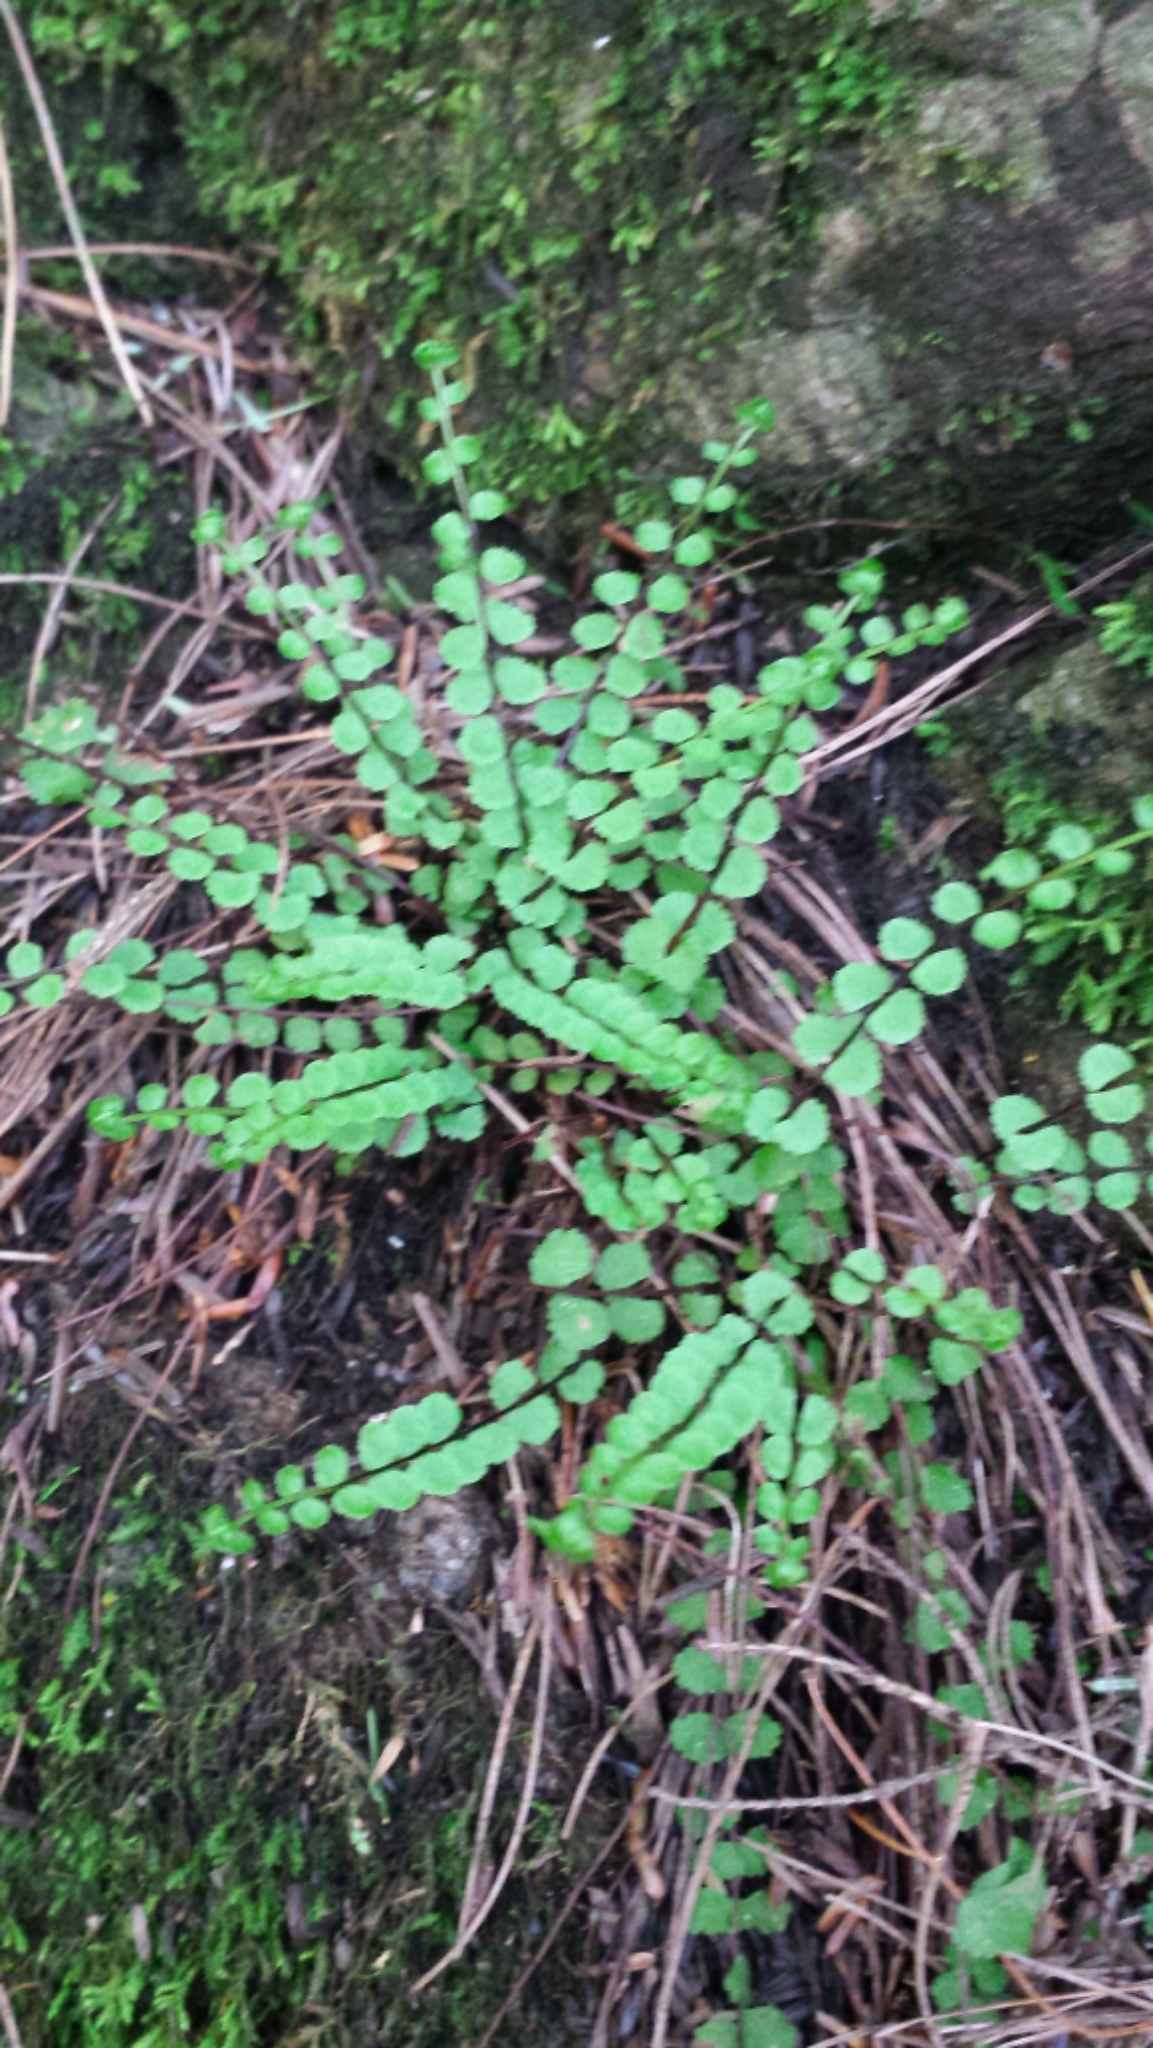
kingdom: Plantae
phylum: Tracheophyta
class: Polypodiopsida
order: Polypodiales
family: Aspleniaceae
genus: Asplenium
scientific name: Asplenium trichomanes
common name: Maidenhair spleenwort
